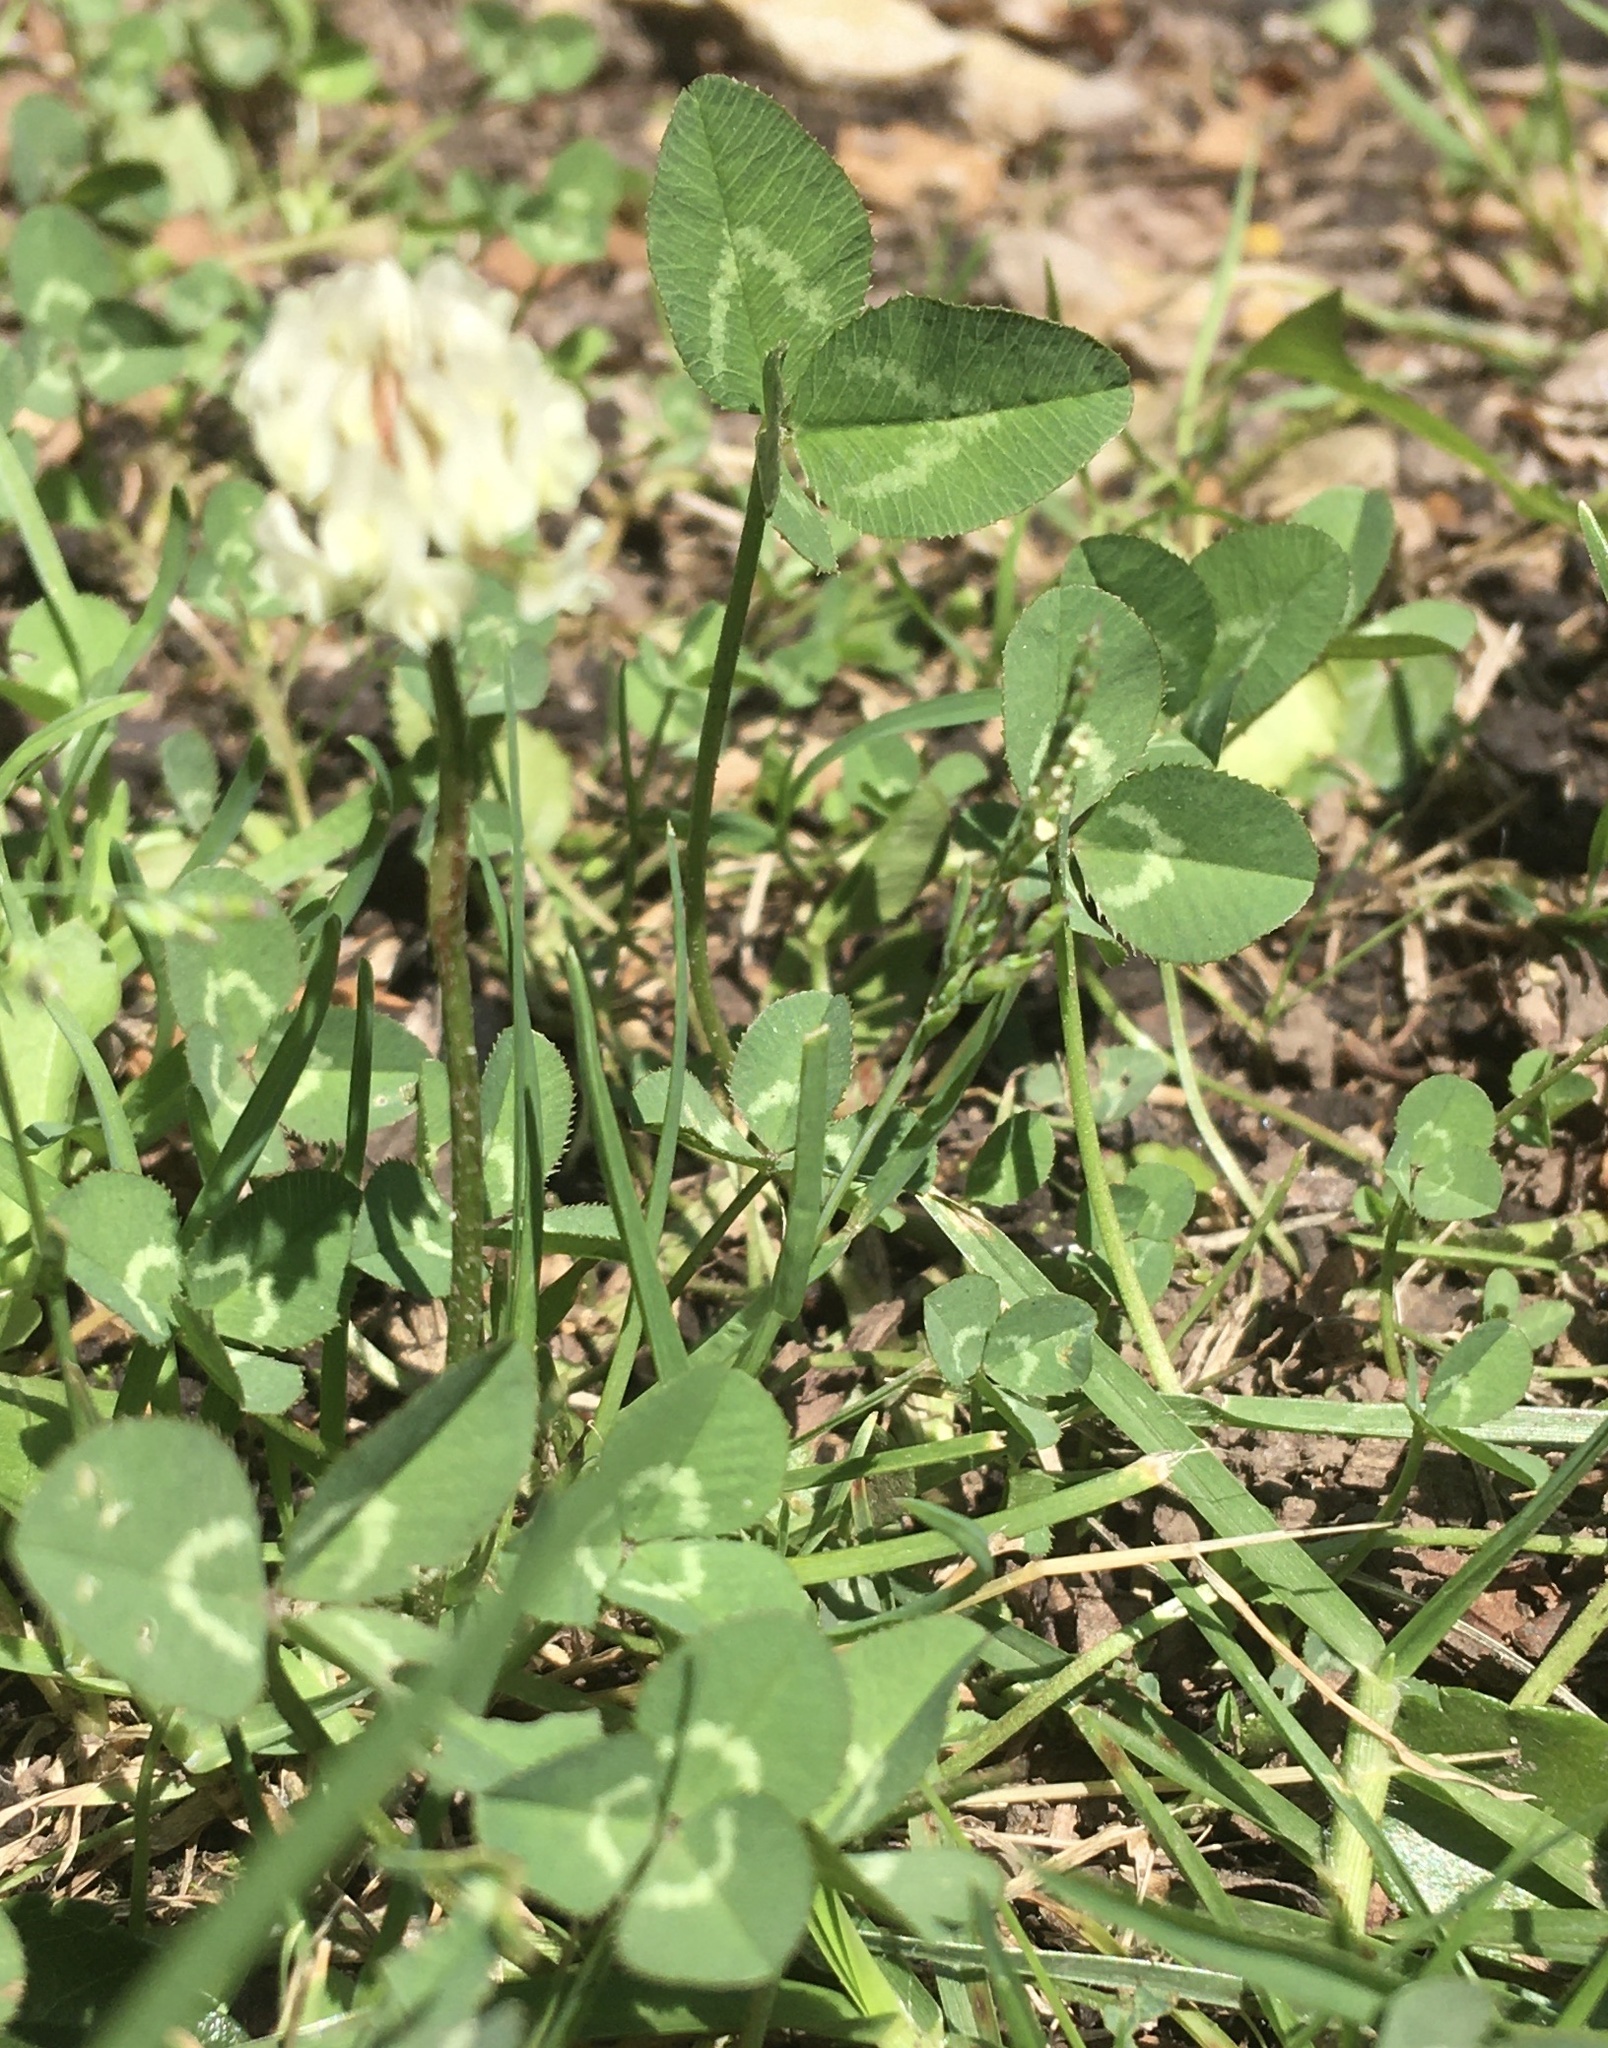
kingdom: Plantae
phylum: Tracheophyta
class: Magnoliopsida
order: Fabales
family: Fabaceae
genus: Trifolium
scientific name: Trifolium repens
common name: White clover
